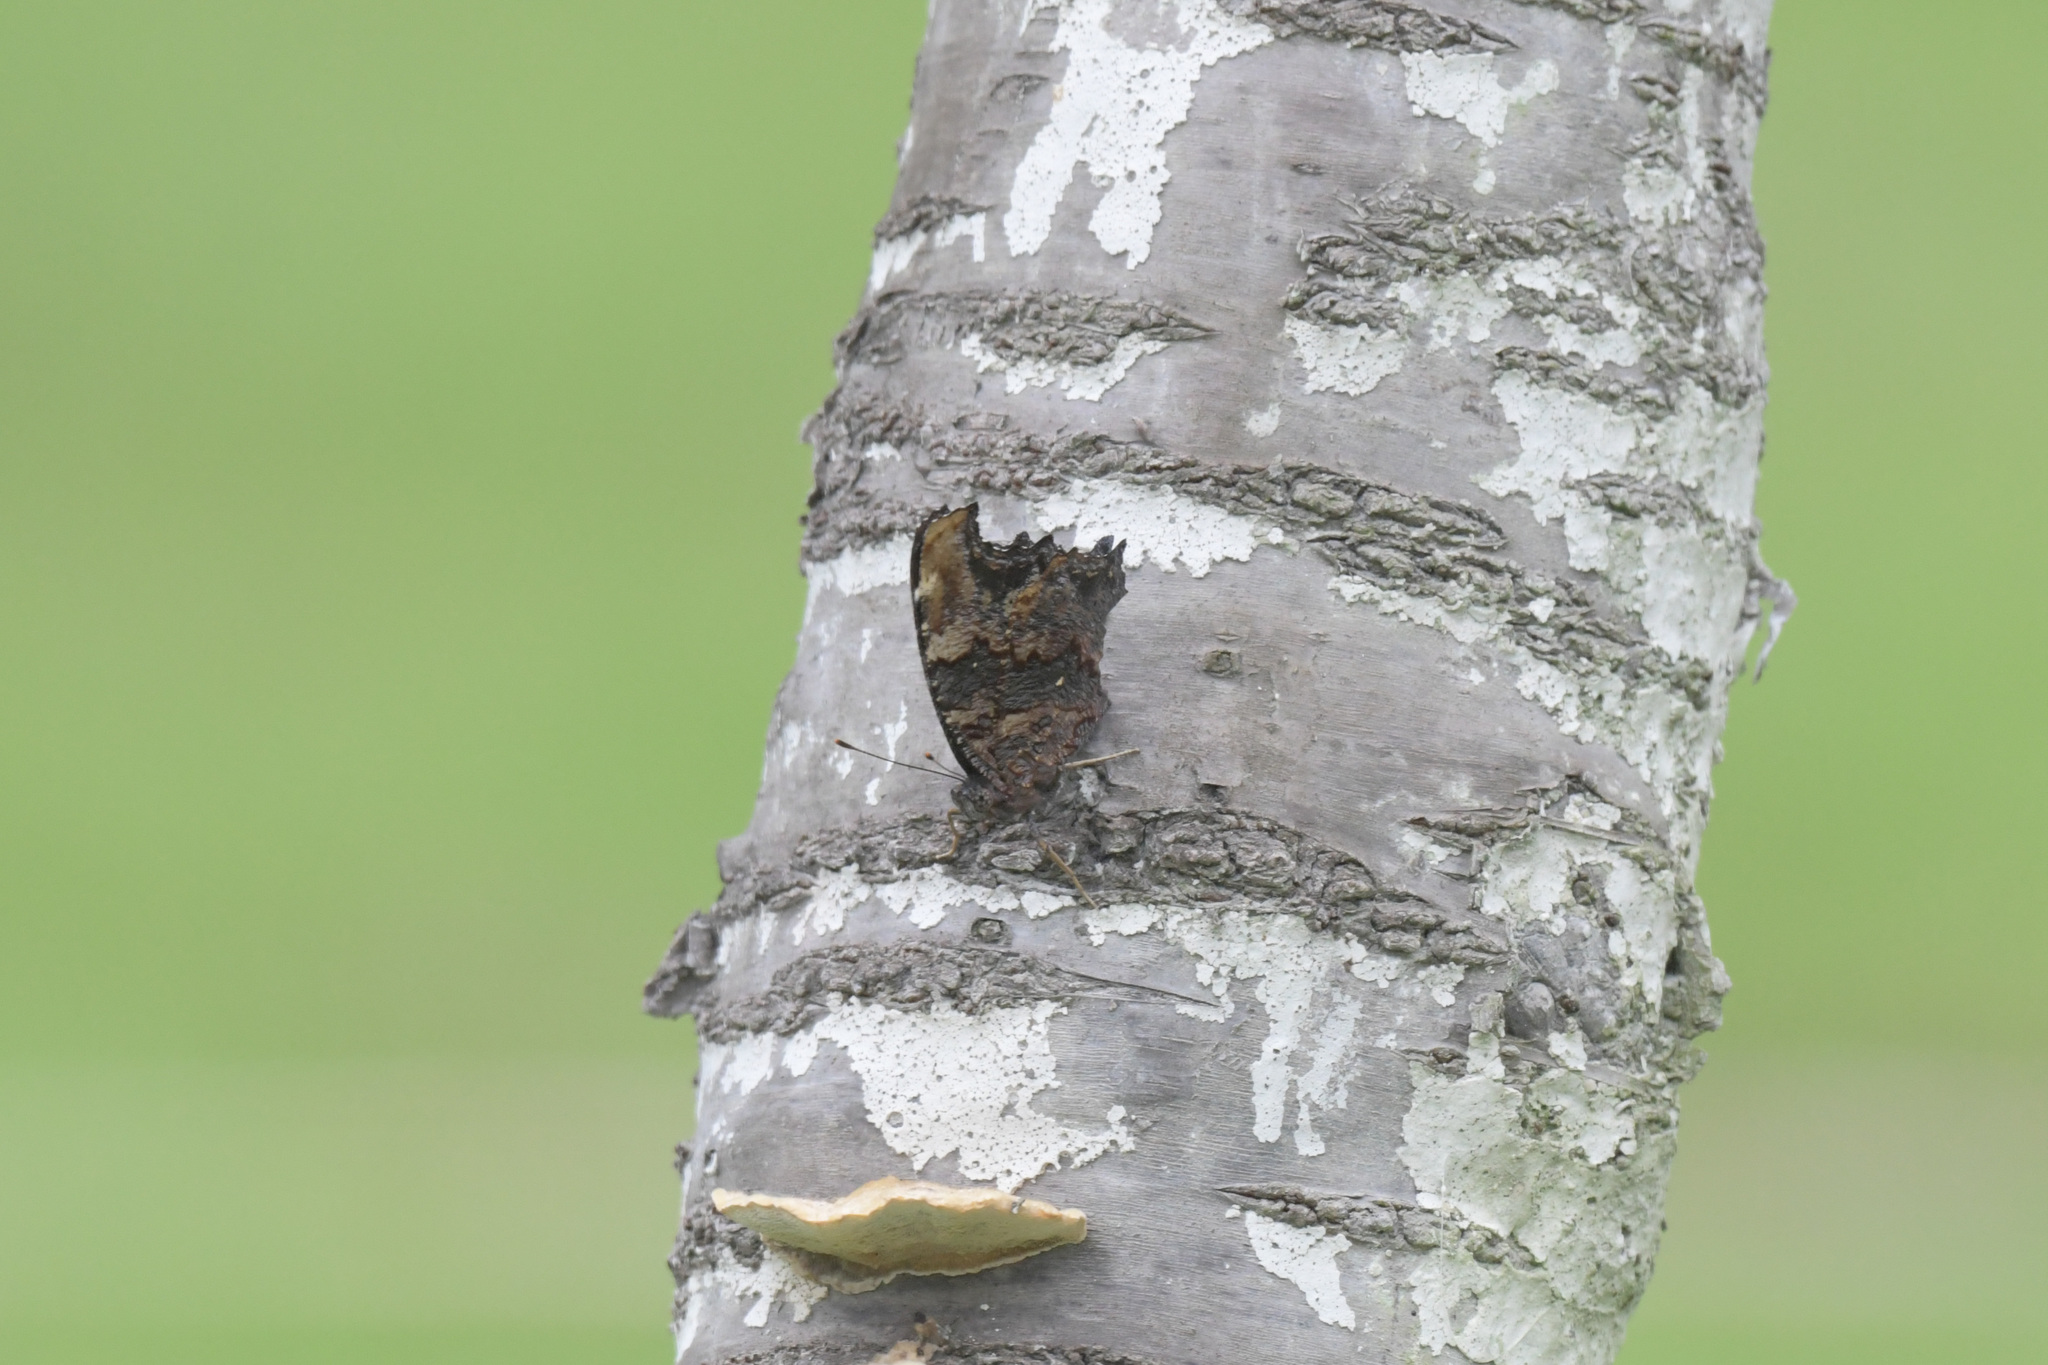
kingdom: Animalia
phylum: Arthropoda
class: Insecta
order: Lepidoptera
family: Nymphalidae
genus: Vanessa
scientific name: Vanessa Kaniska canace
